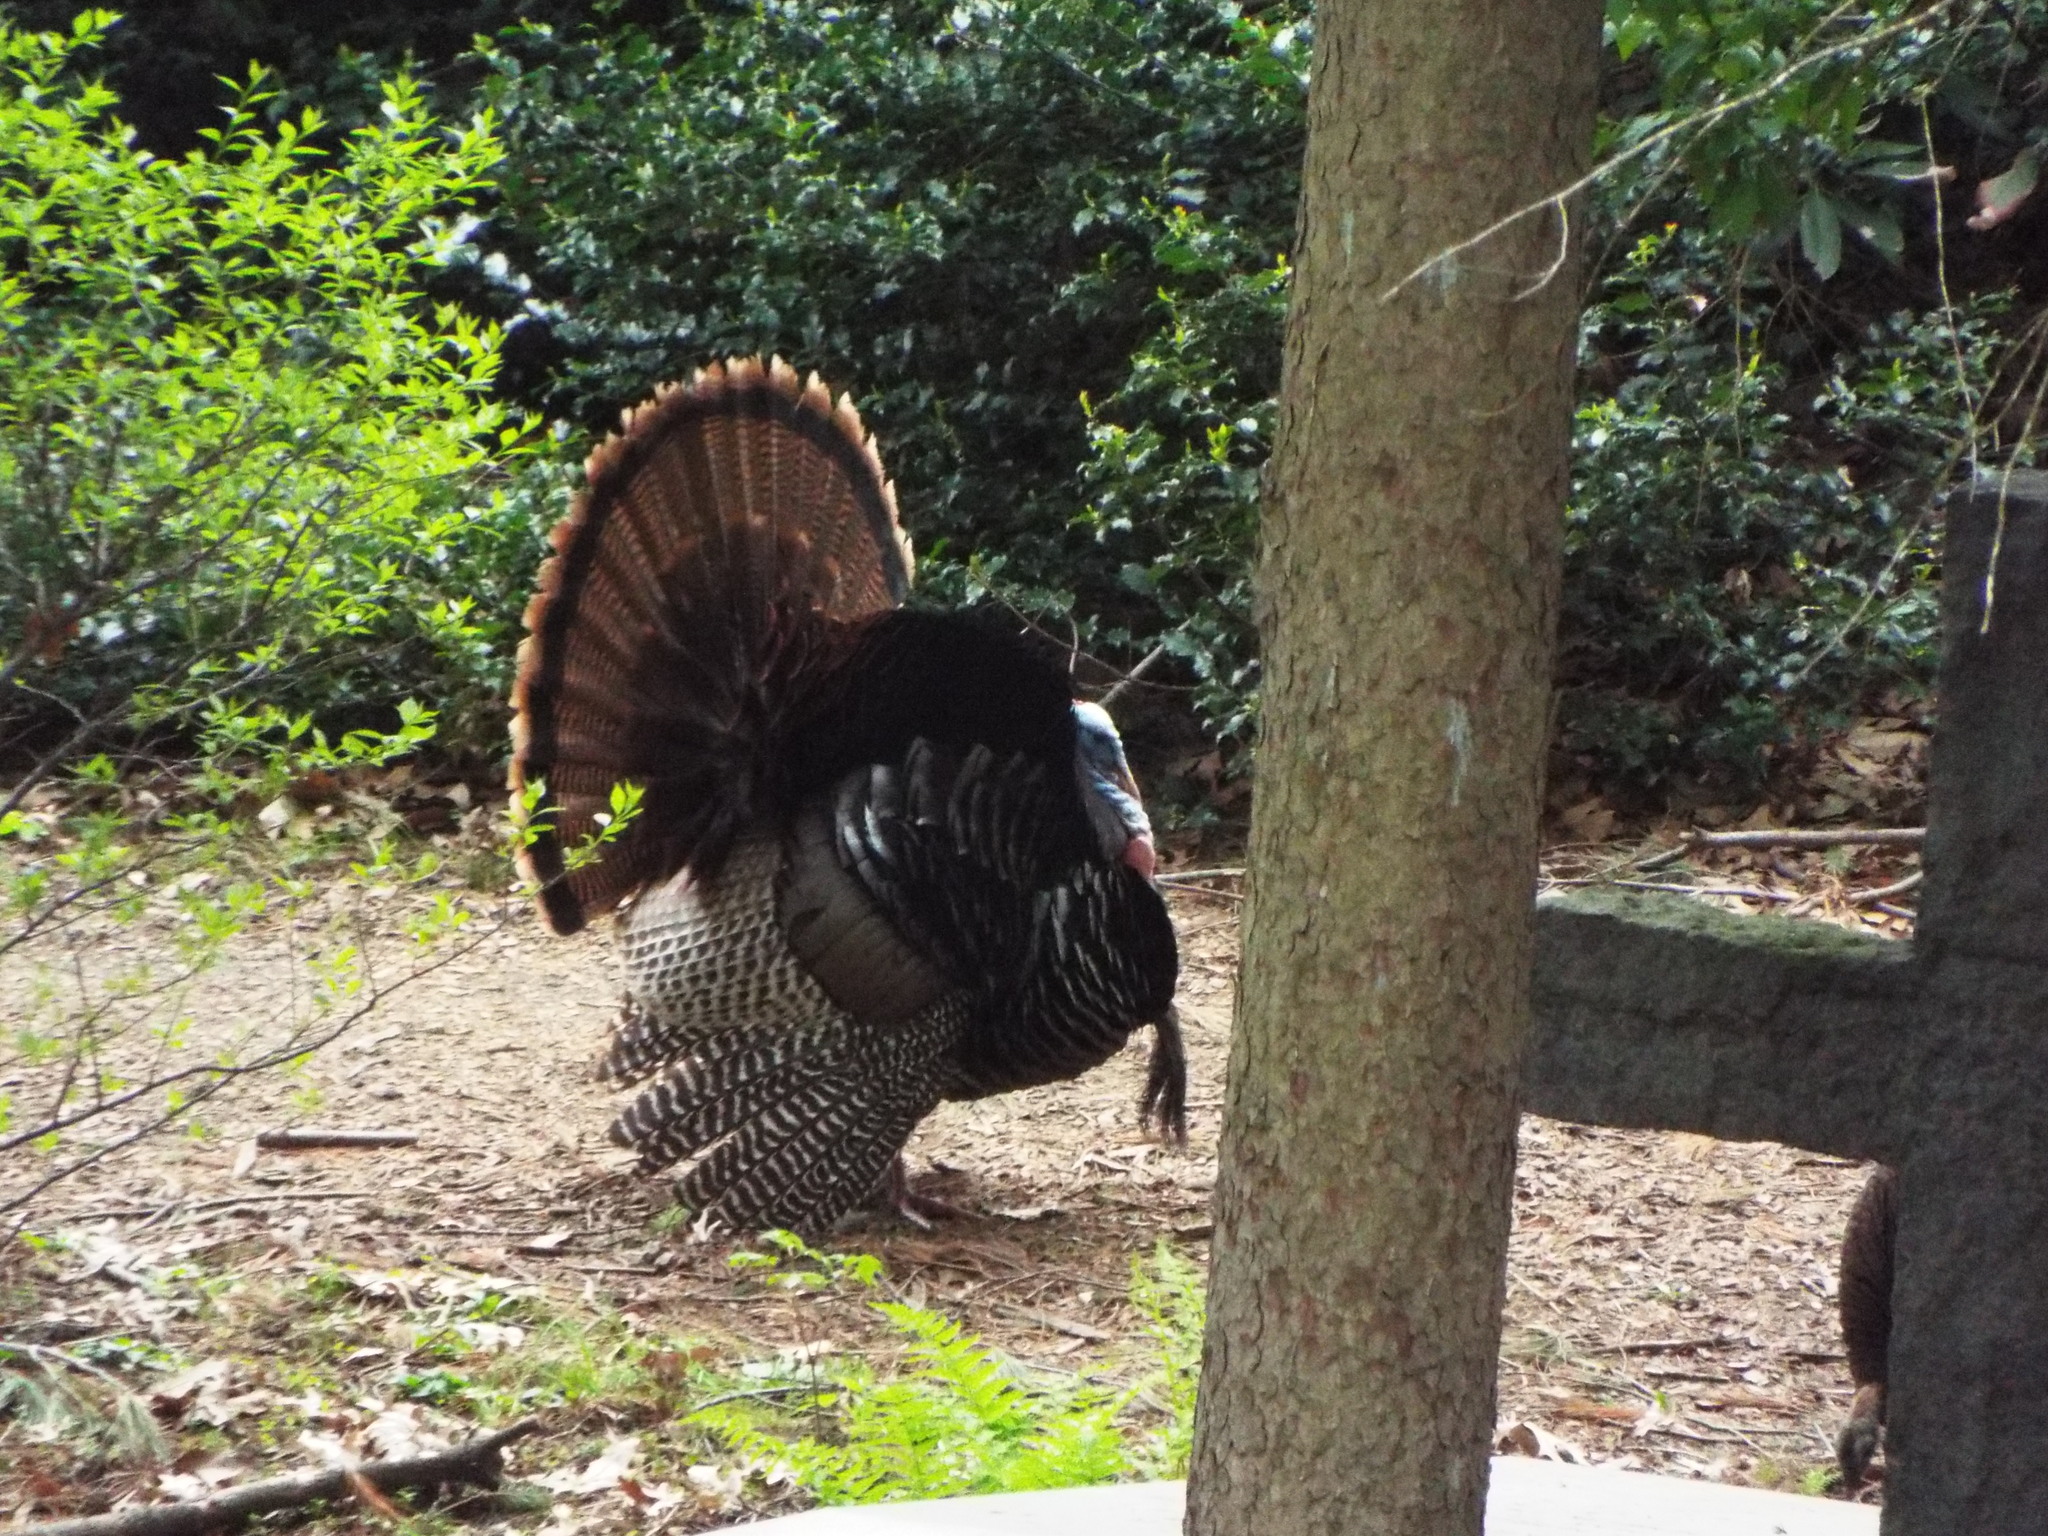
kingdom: Animalia
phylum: Chordata
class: Aves
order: Galliformes
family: Phasianidae
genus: Meleagris
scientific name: Meleagris gallopavo
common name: Wild turkey
